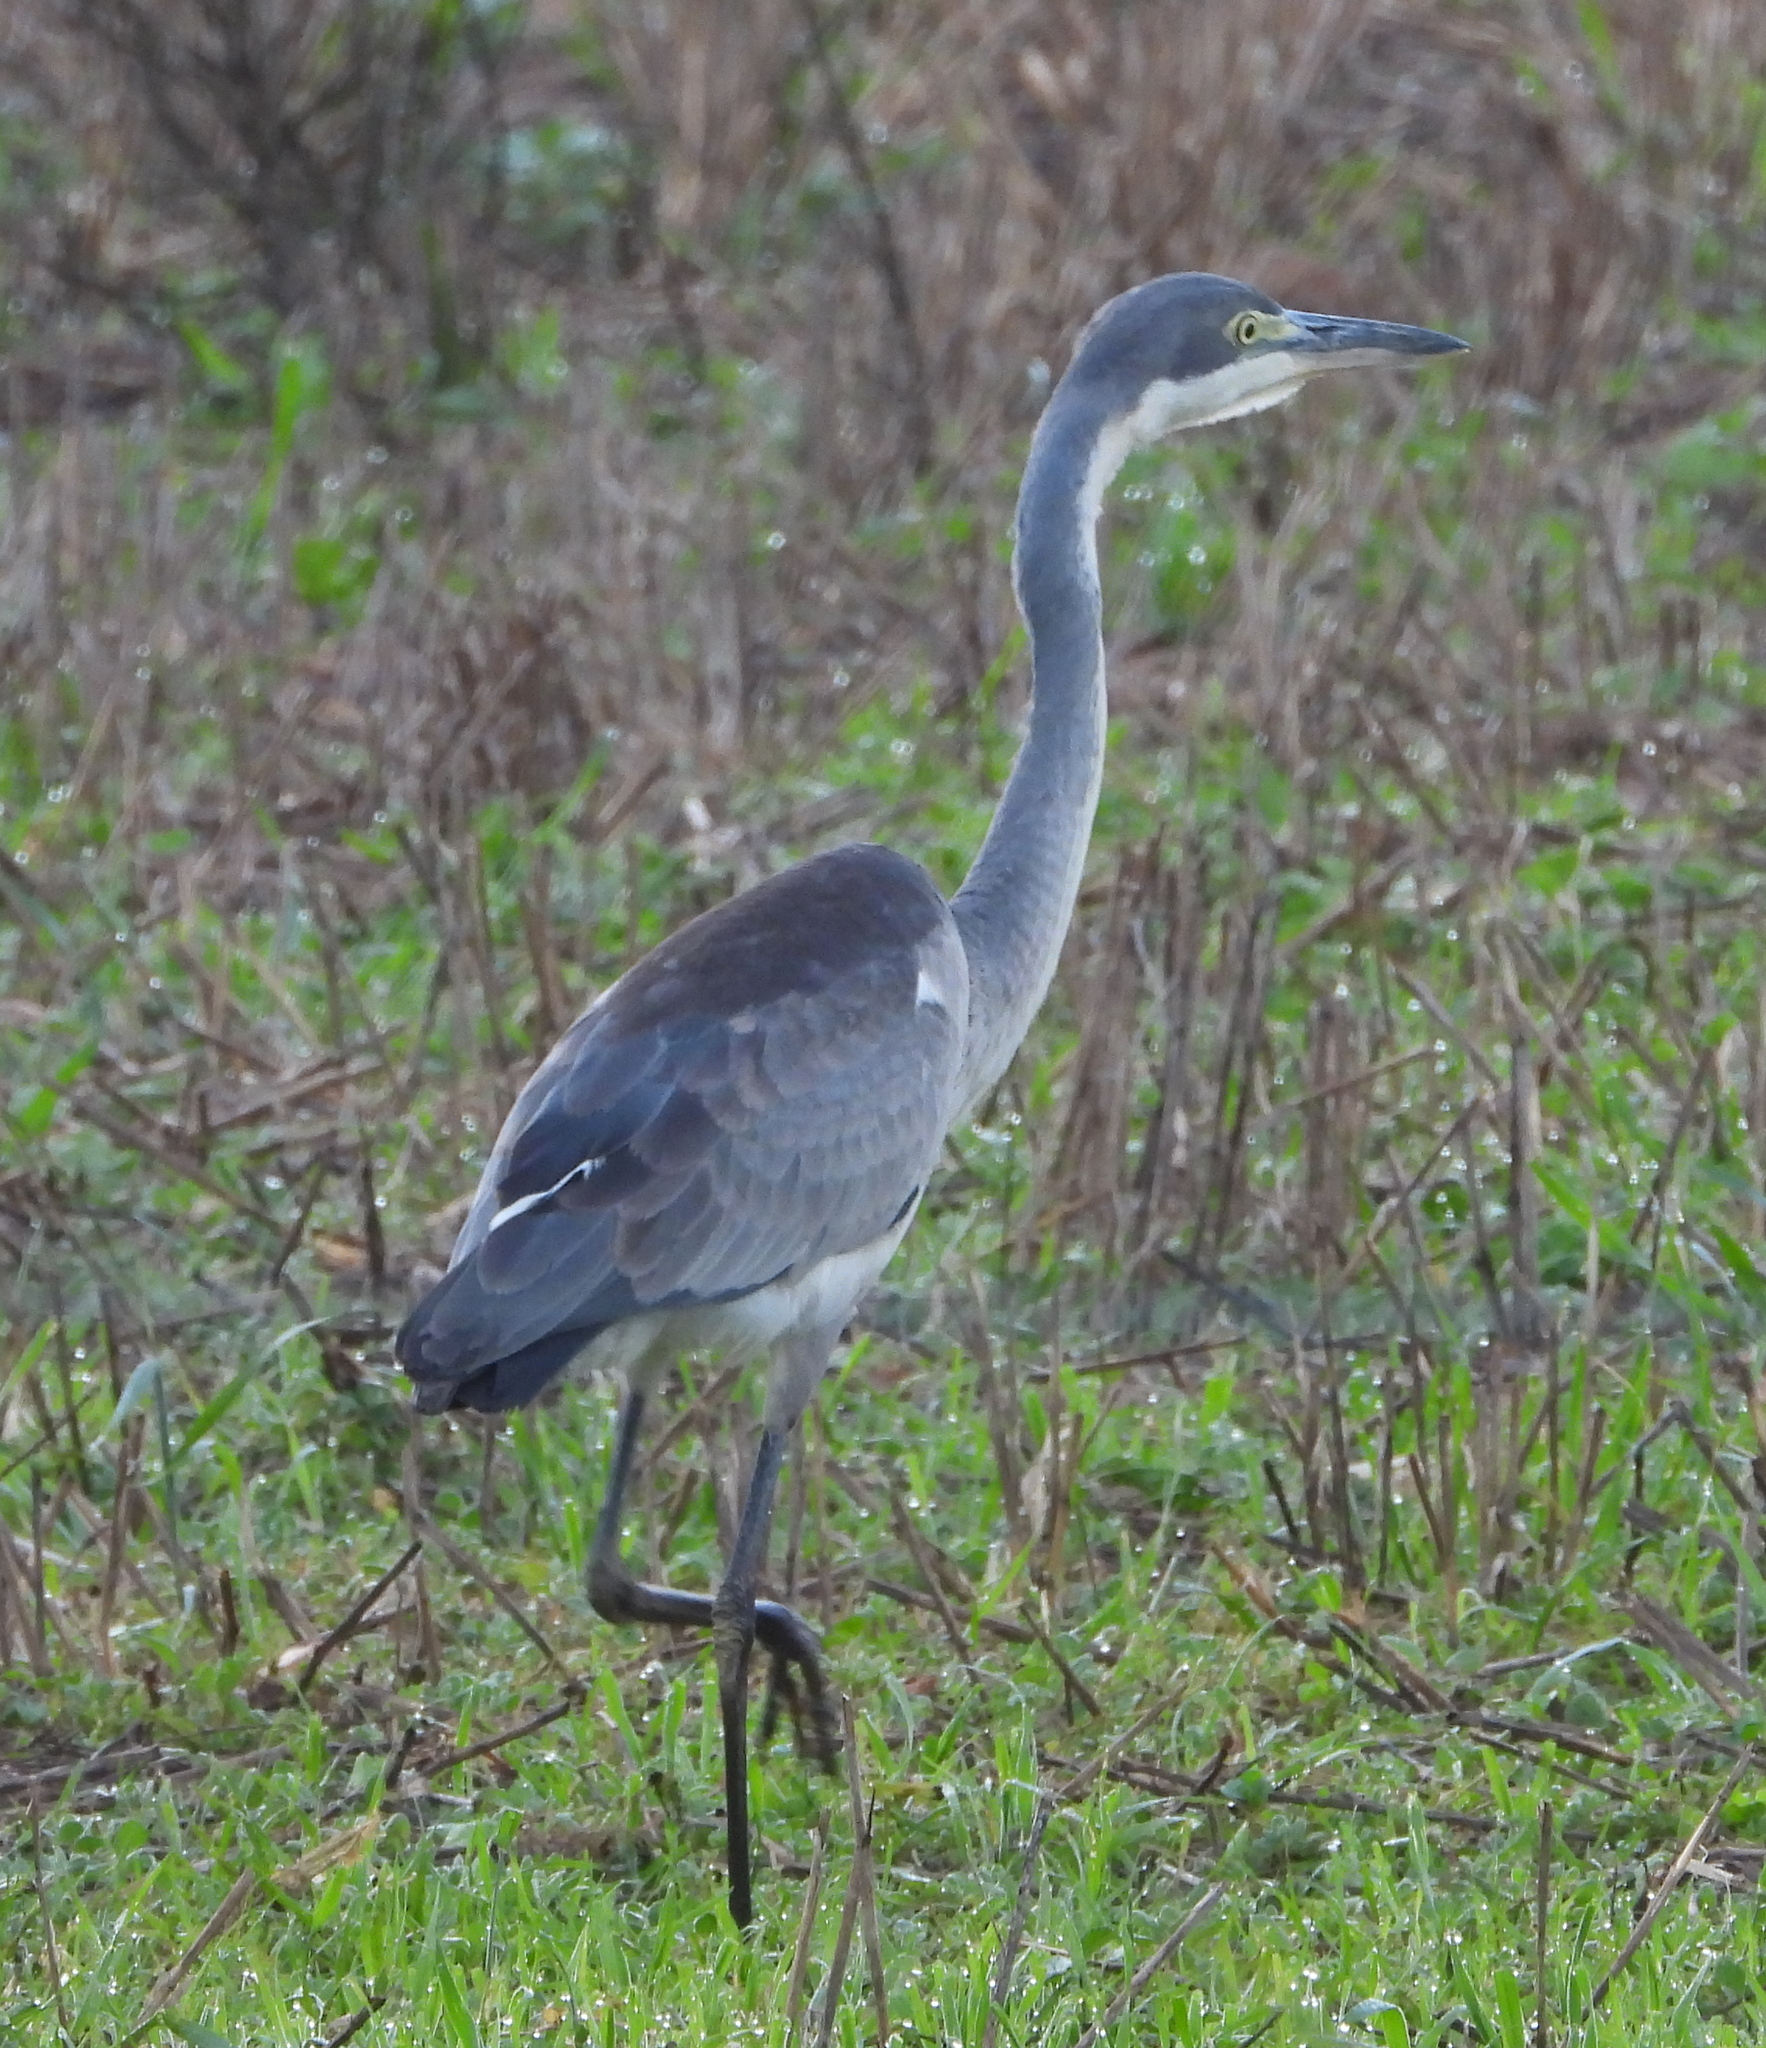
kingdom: Animalia
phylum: Chordata
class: Aves
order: Pelecaniformes
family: Ardeidae
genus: Ardea
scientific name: Ardea melanocephala
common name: Black-headed heron
